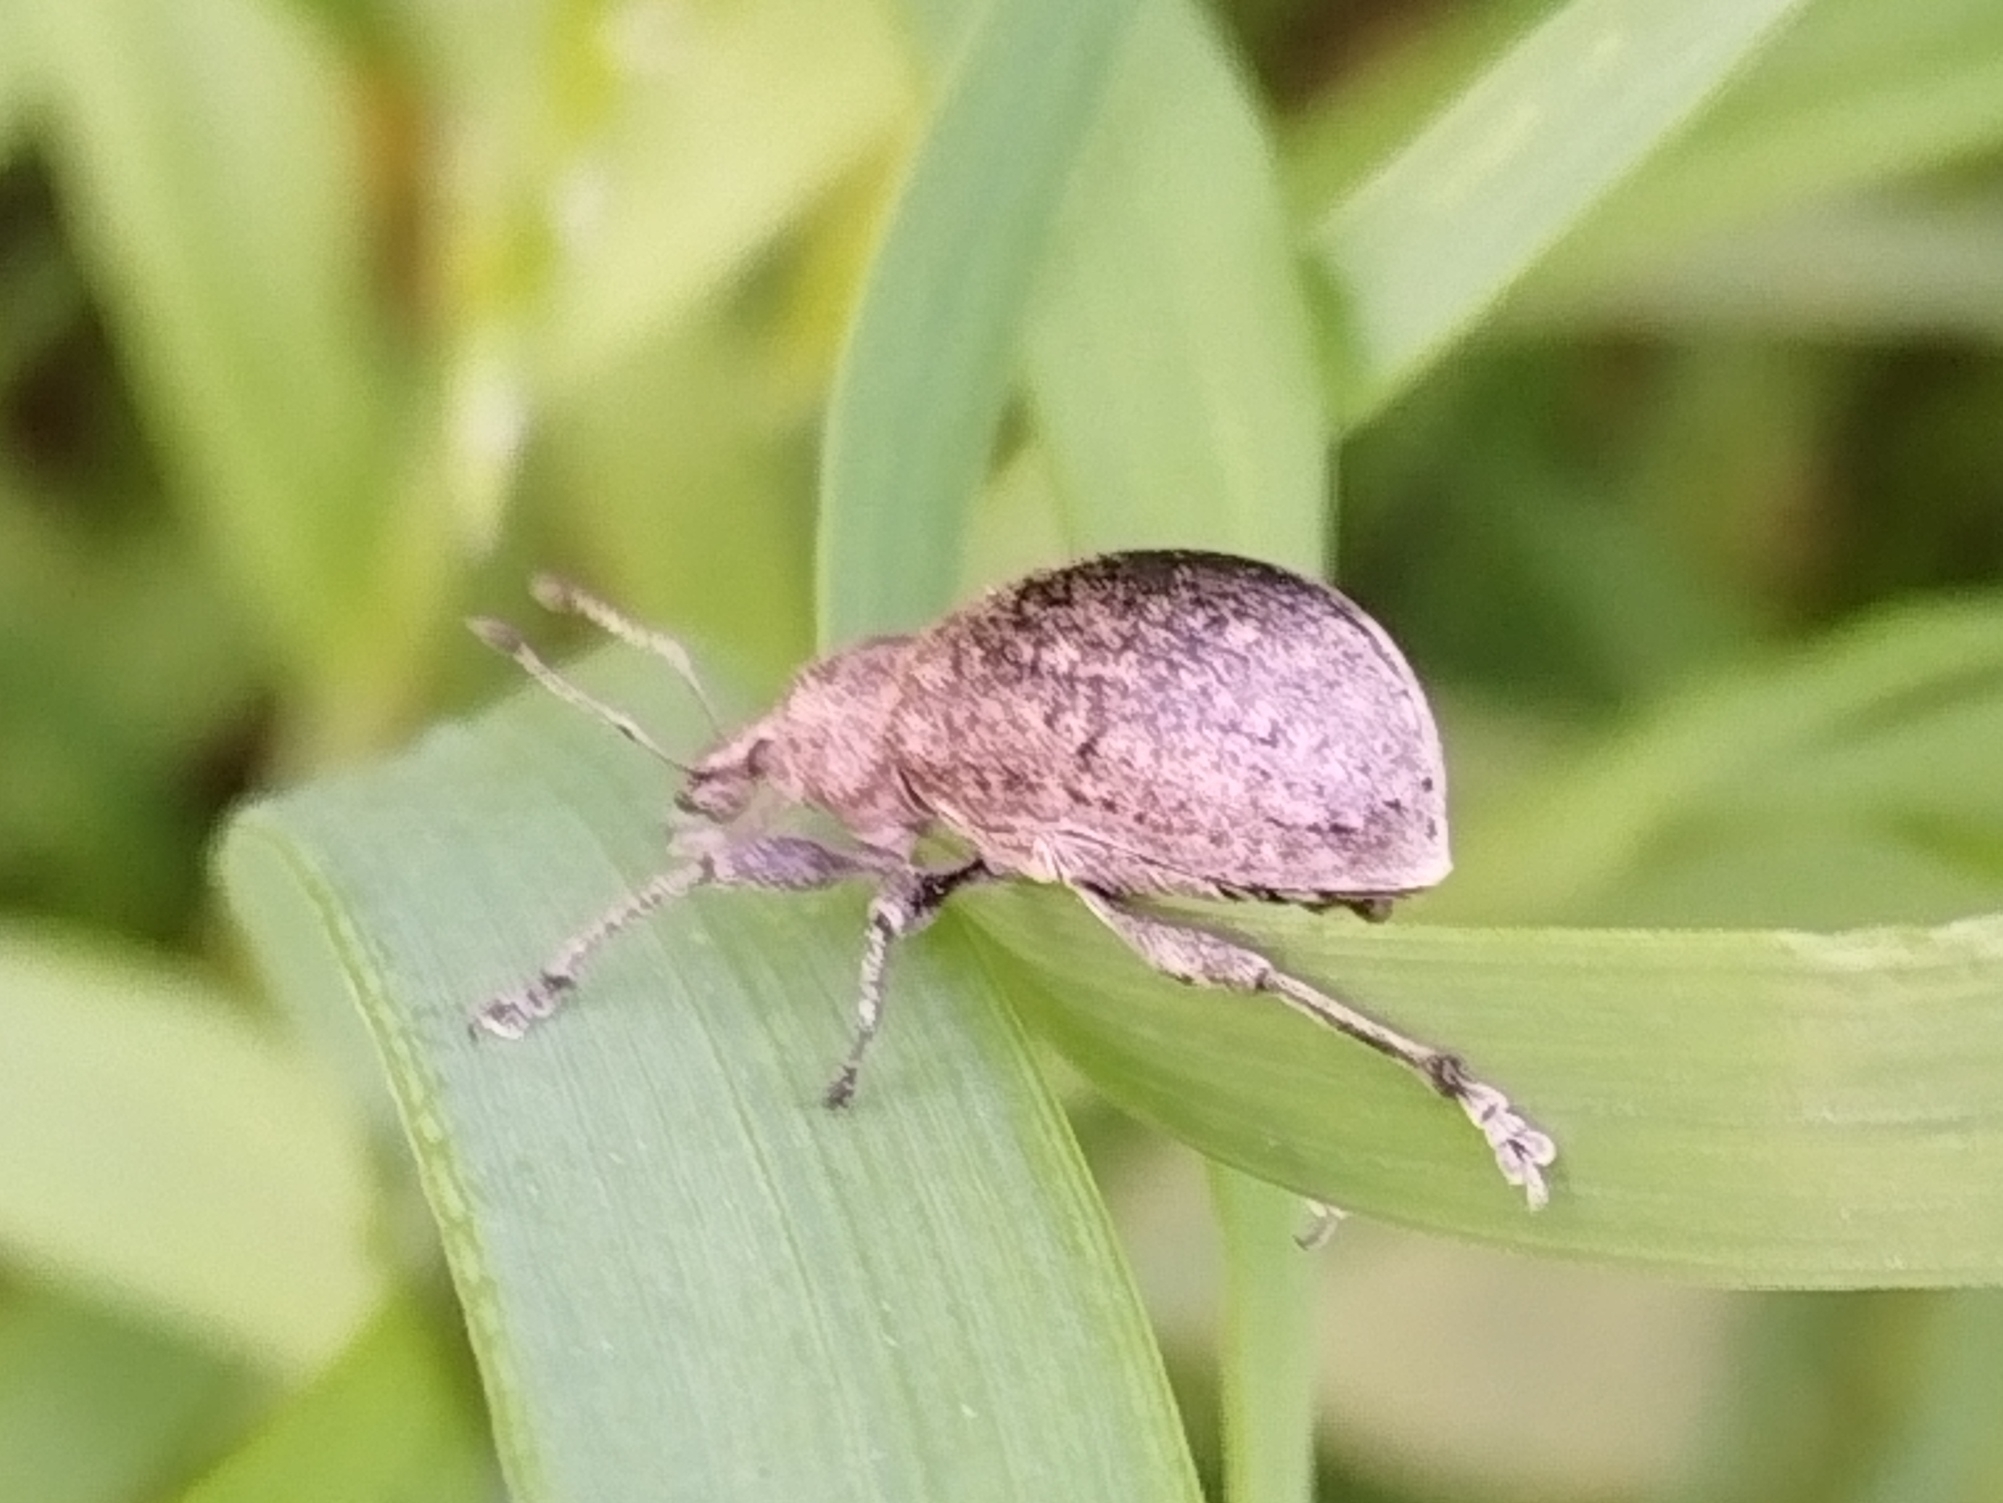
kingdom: Animalia
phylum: Arthropoda
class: Insecta
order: Coleoptera
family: Curculionidae
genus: Liophloeus
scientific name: Liophloeus tessulatus
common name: Weevil
